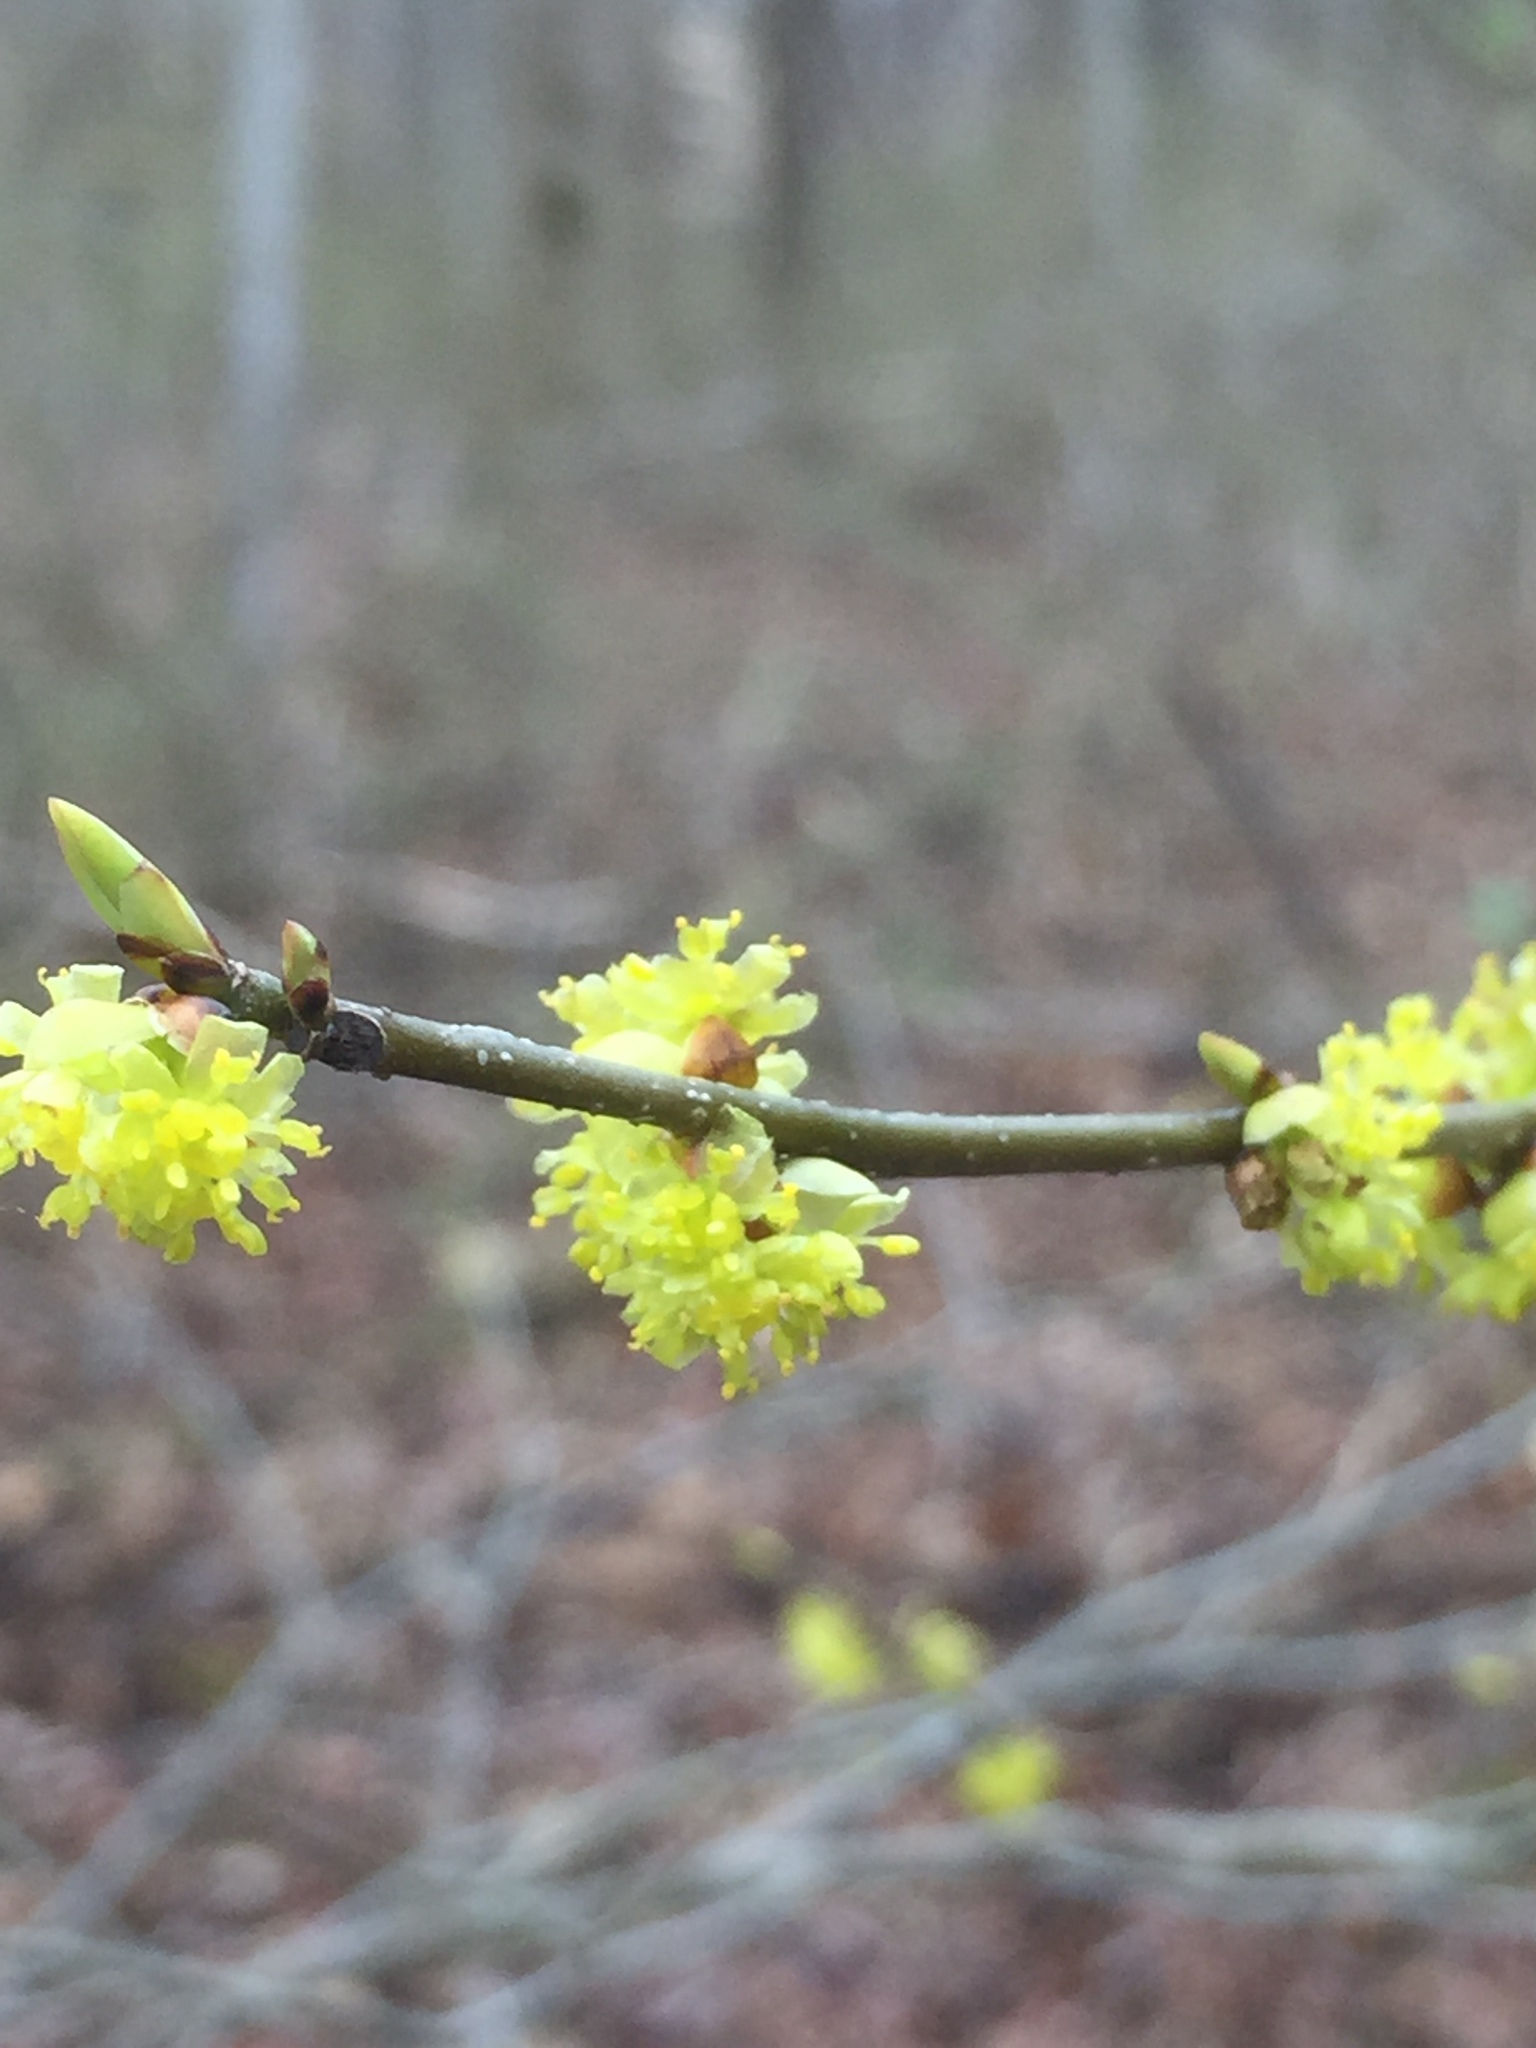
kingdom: Plantae
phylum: Tracheophyta
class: Magnoliopsida
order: Laurales
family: Lauraceae
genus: Lindera
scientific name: Lindera benzoin
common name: Spicebush
